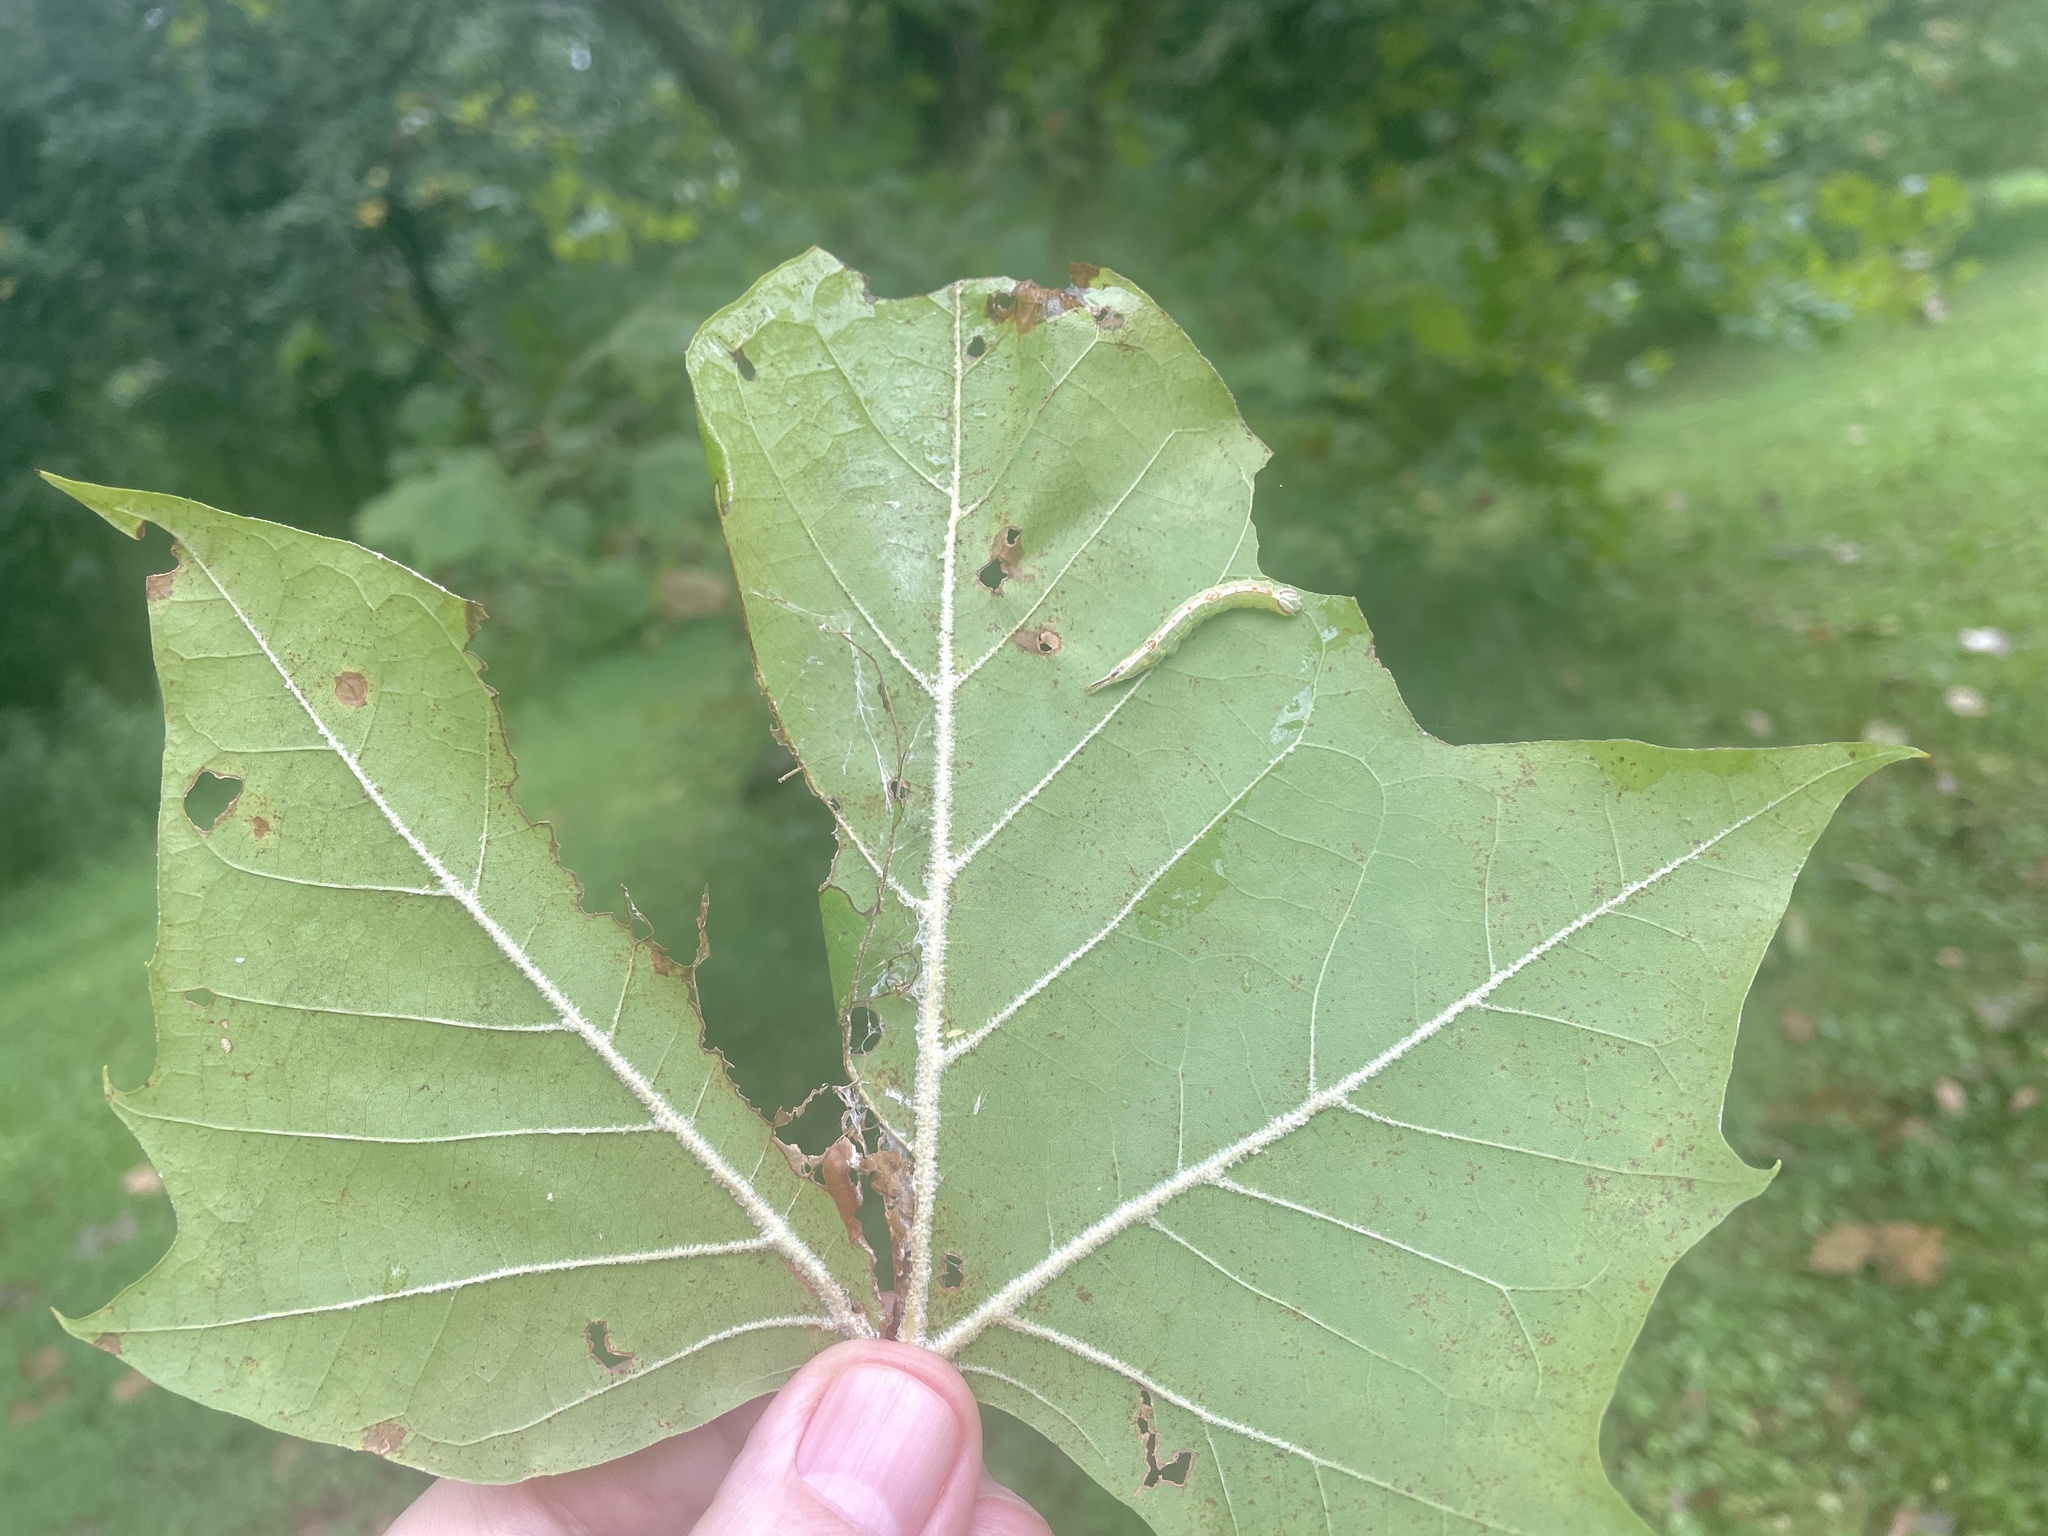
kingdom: Animalia
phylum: Arthropoda
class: Insecta
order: Lepidoptera
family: Notodontidae
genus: Misogada
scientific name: Misogada unicolor
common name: Drab prominent
